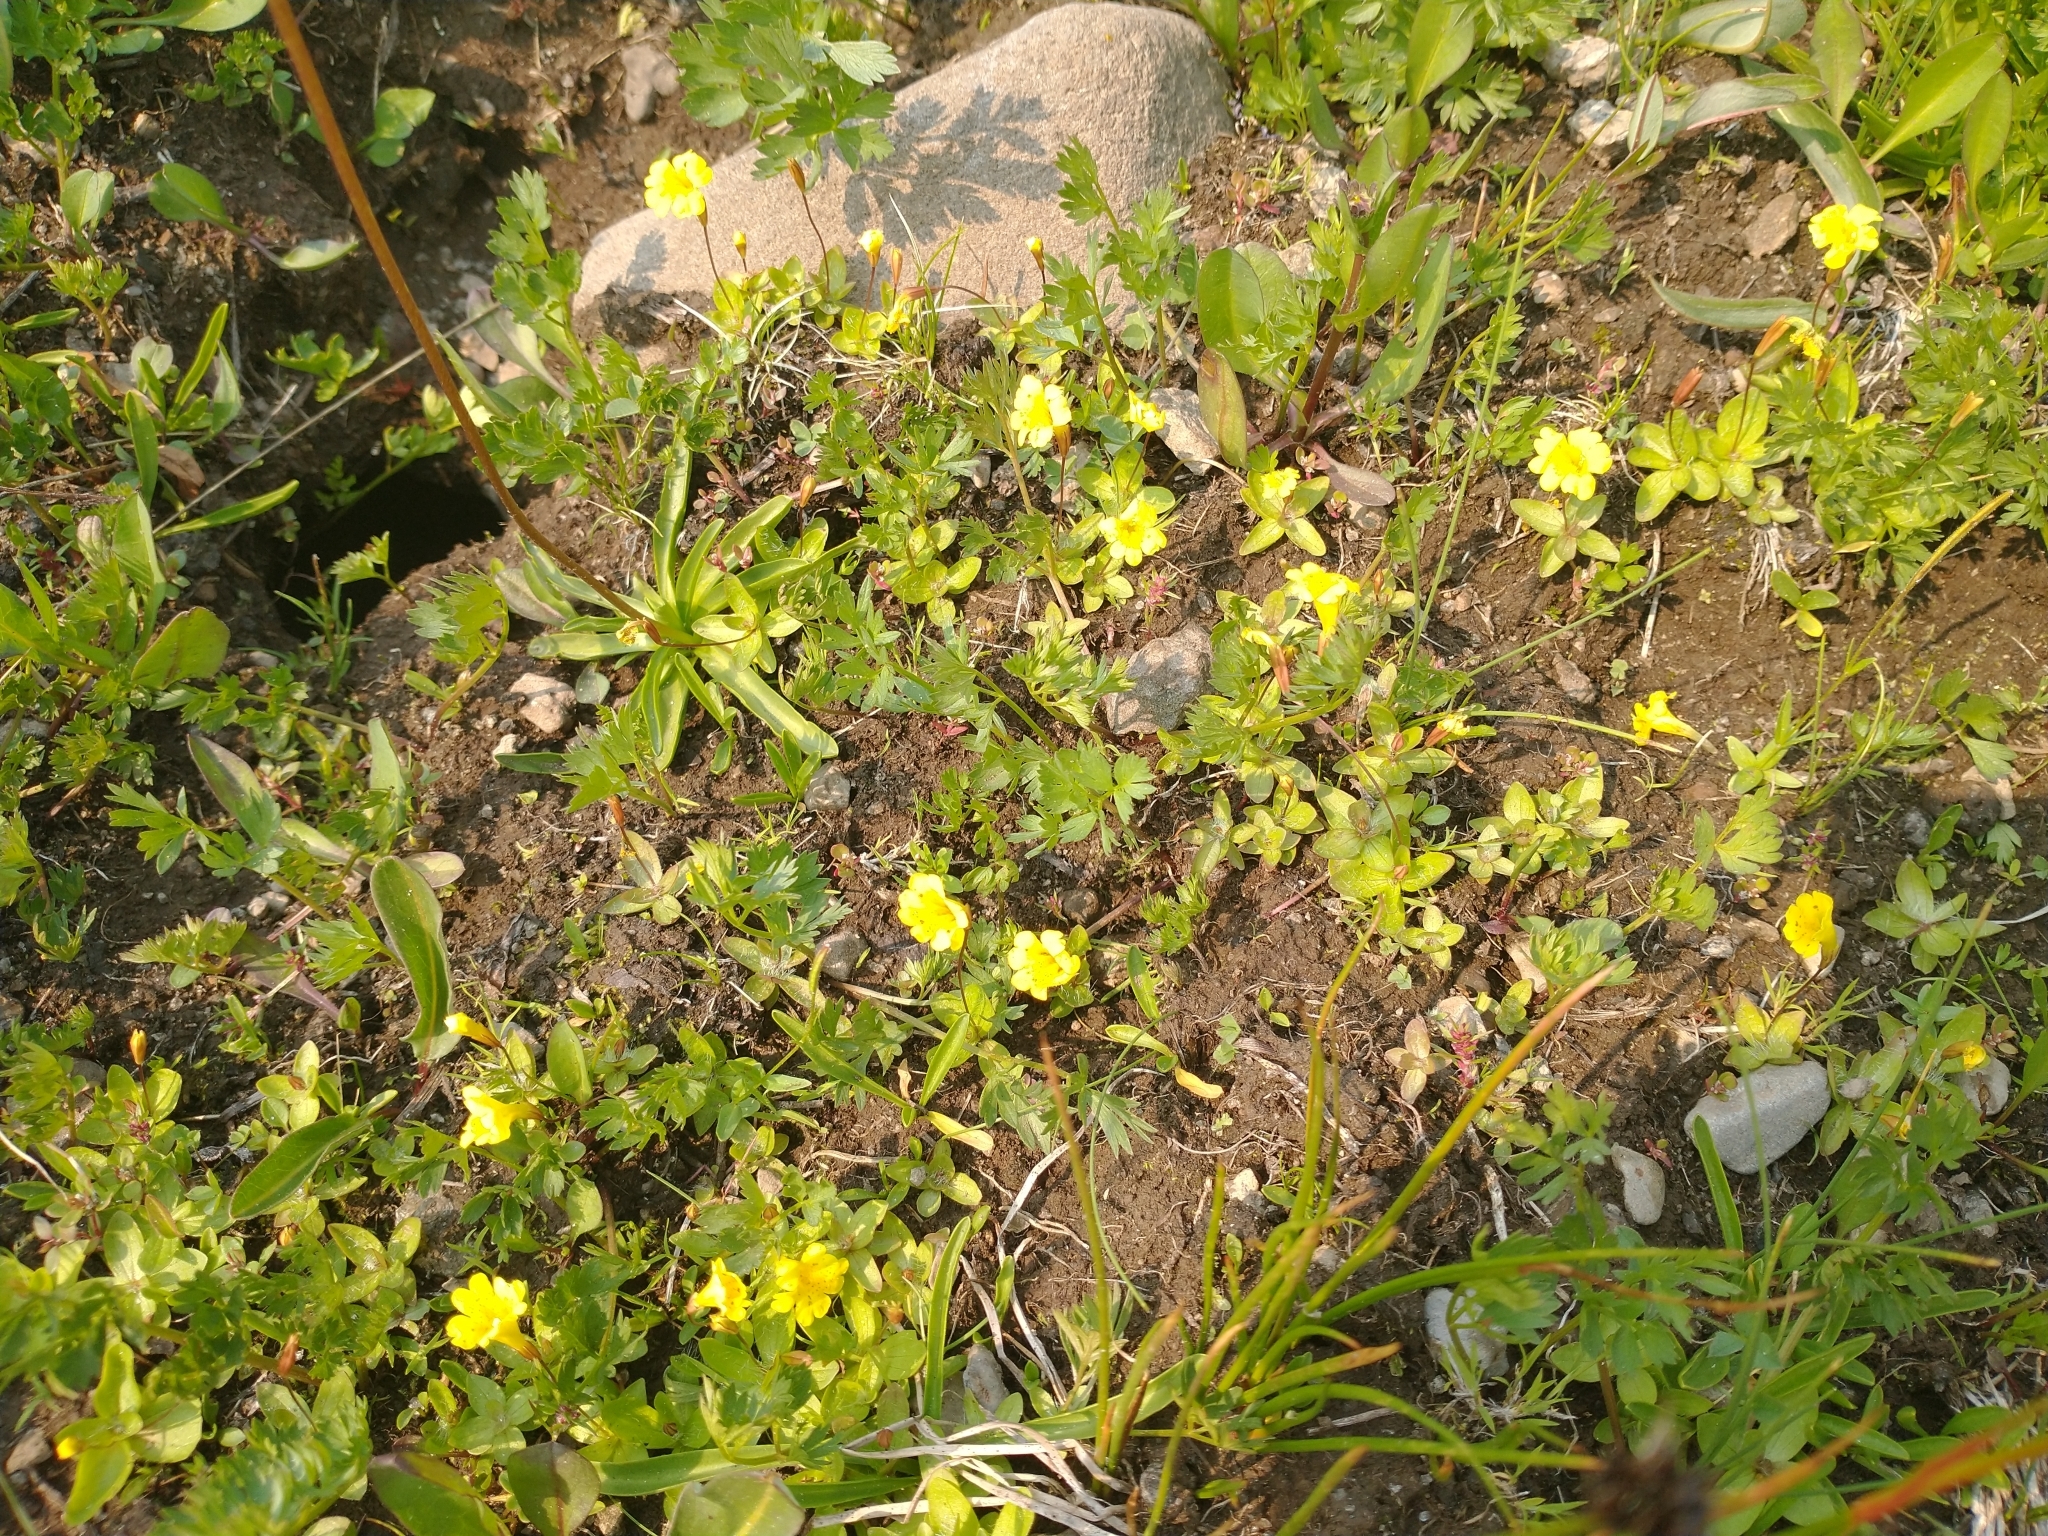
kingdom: Plantae
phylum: Tracheophyta
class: Magnoliopsida
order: Lamiales
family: Phrymaceae
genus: Erythranthe
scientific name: Erythranthe primuloides
